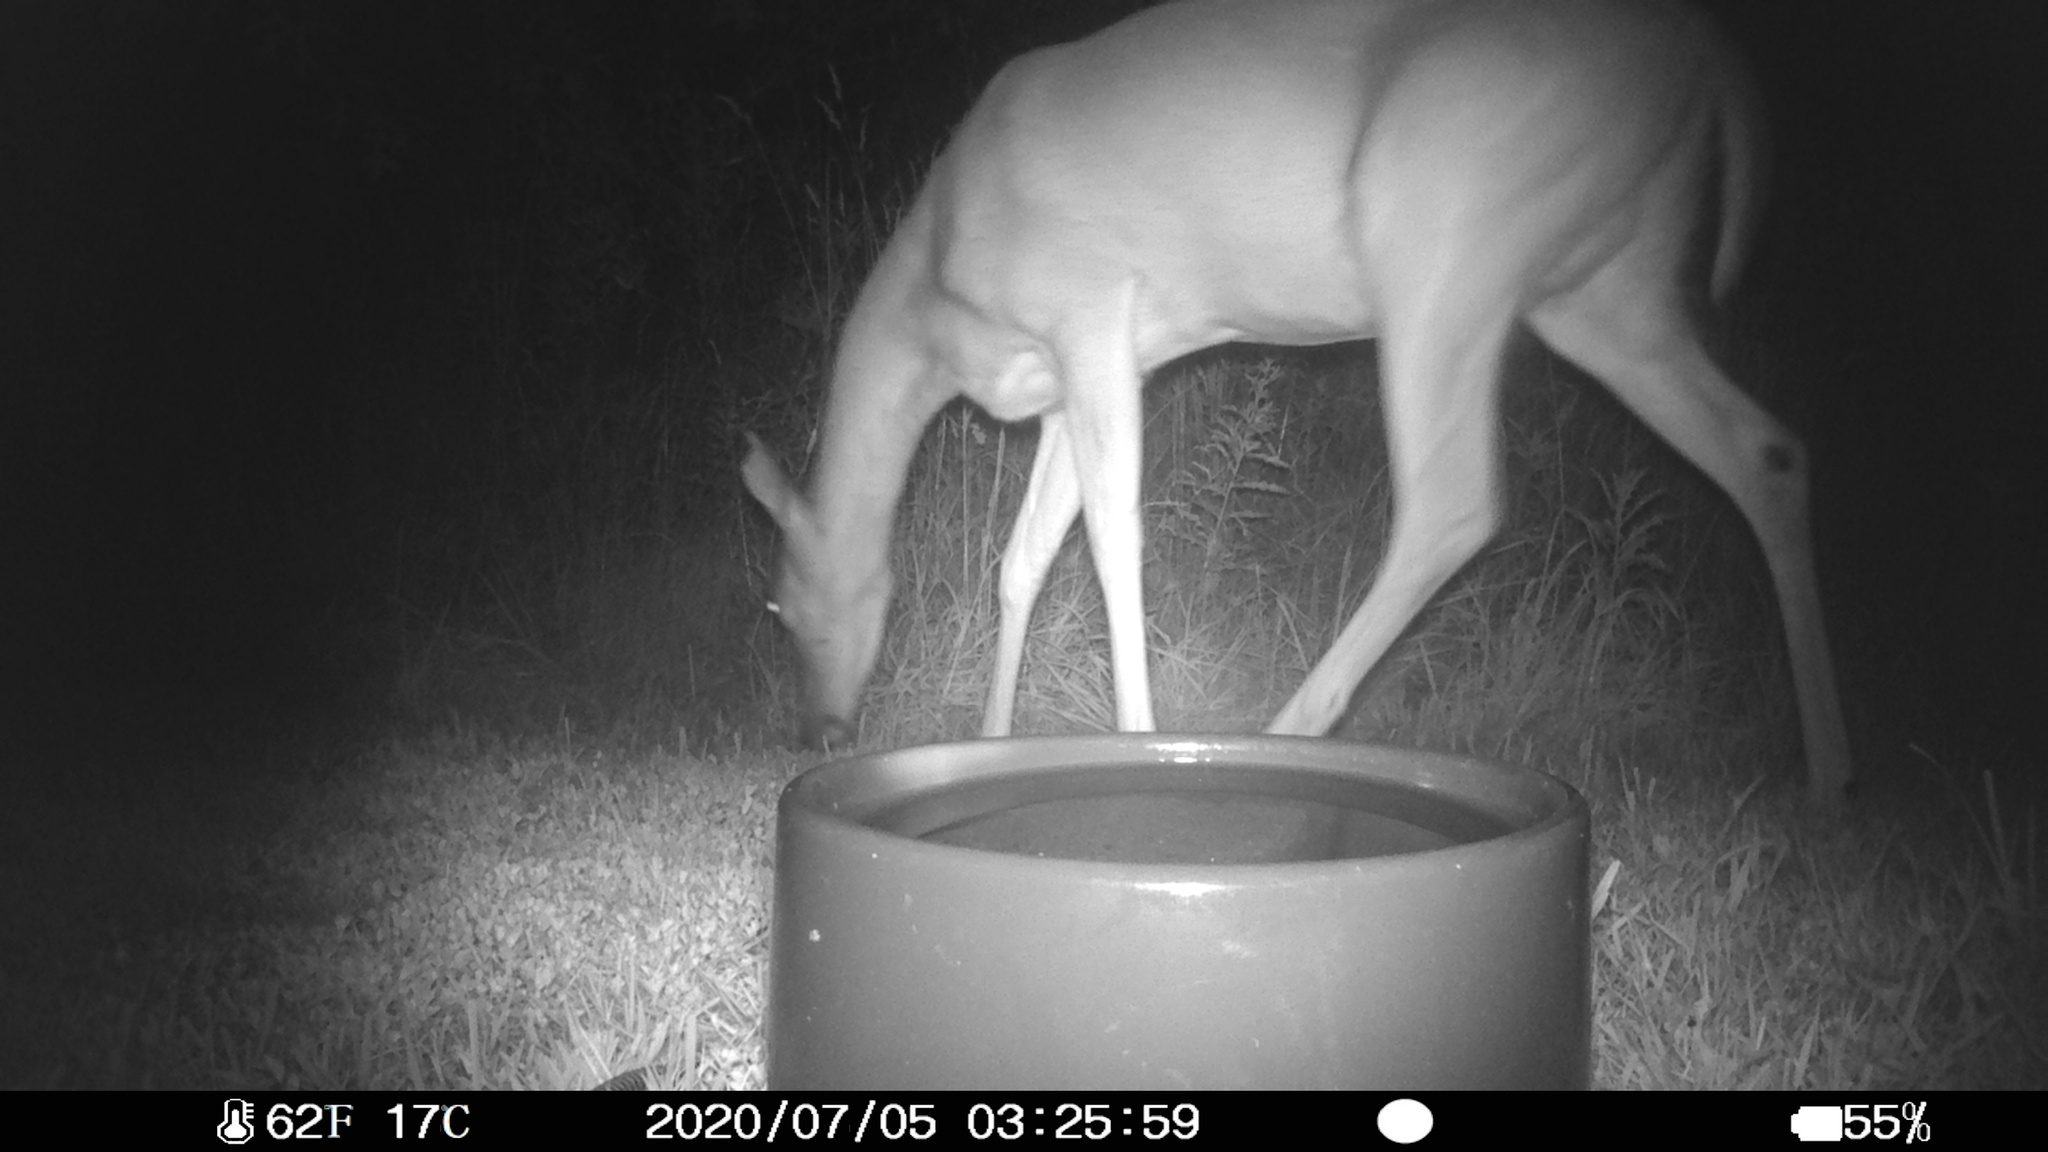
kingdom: Animalia
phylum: Chordata
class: Mammalia
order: Artiodactyla
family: Cervidae
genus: Odocoileus
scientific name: Odocoileus virginianus
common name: White-tailed deer
